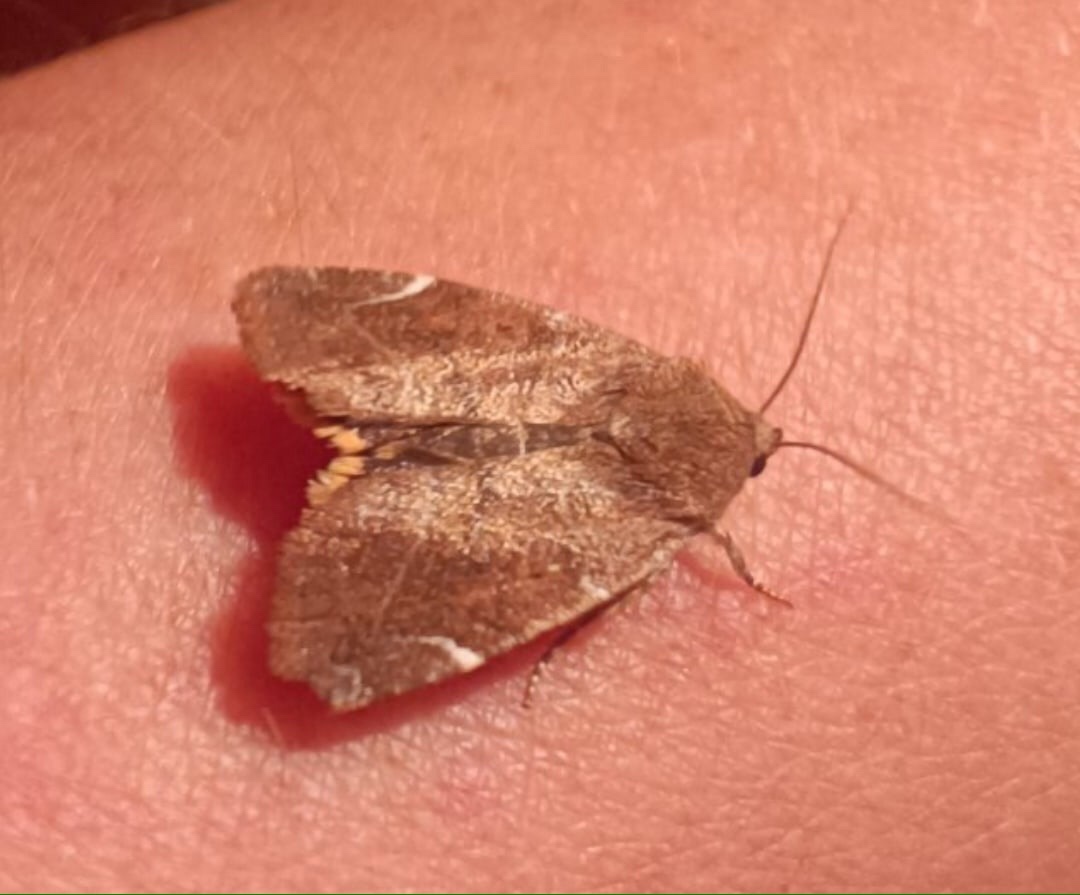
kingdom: Animalia
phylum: Arthropoda
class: Insecta
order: Lepidoptera
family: Noctuidae
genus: Cosmia
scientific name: Cosmia affinis
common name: Lesser-spotted pinion
